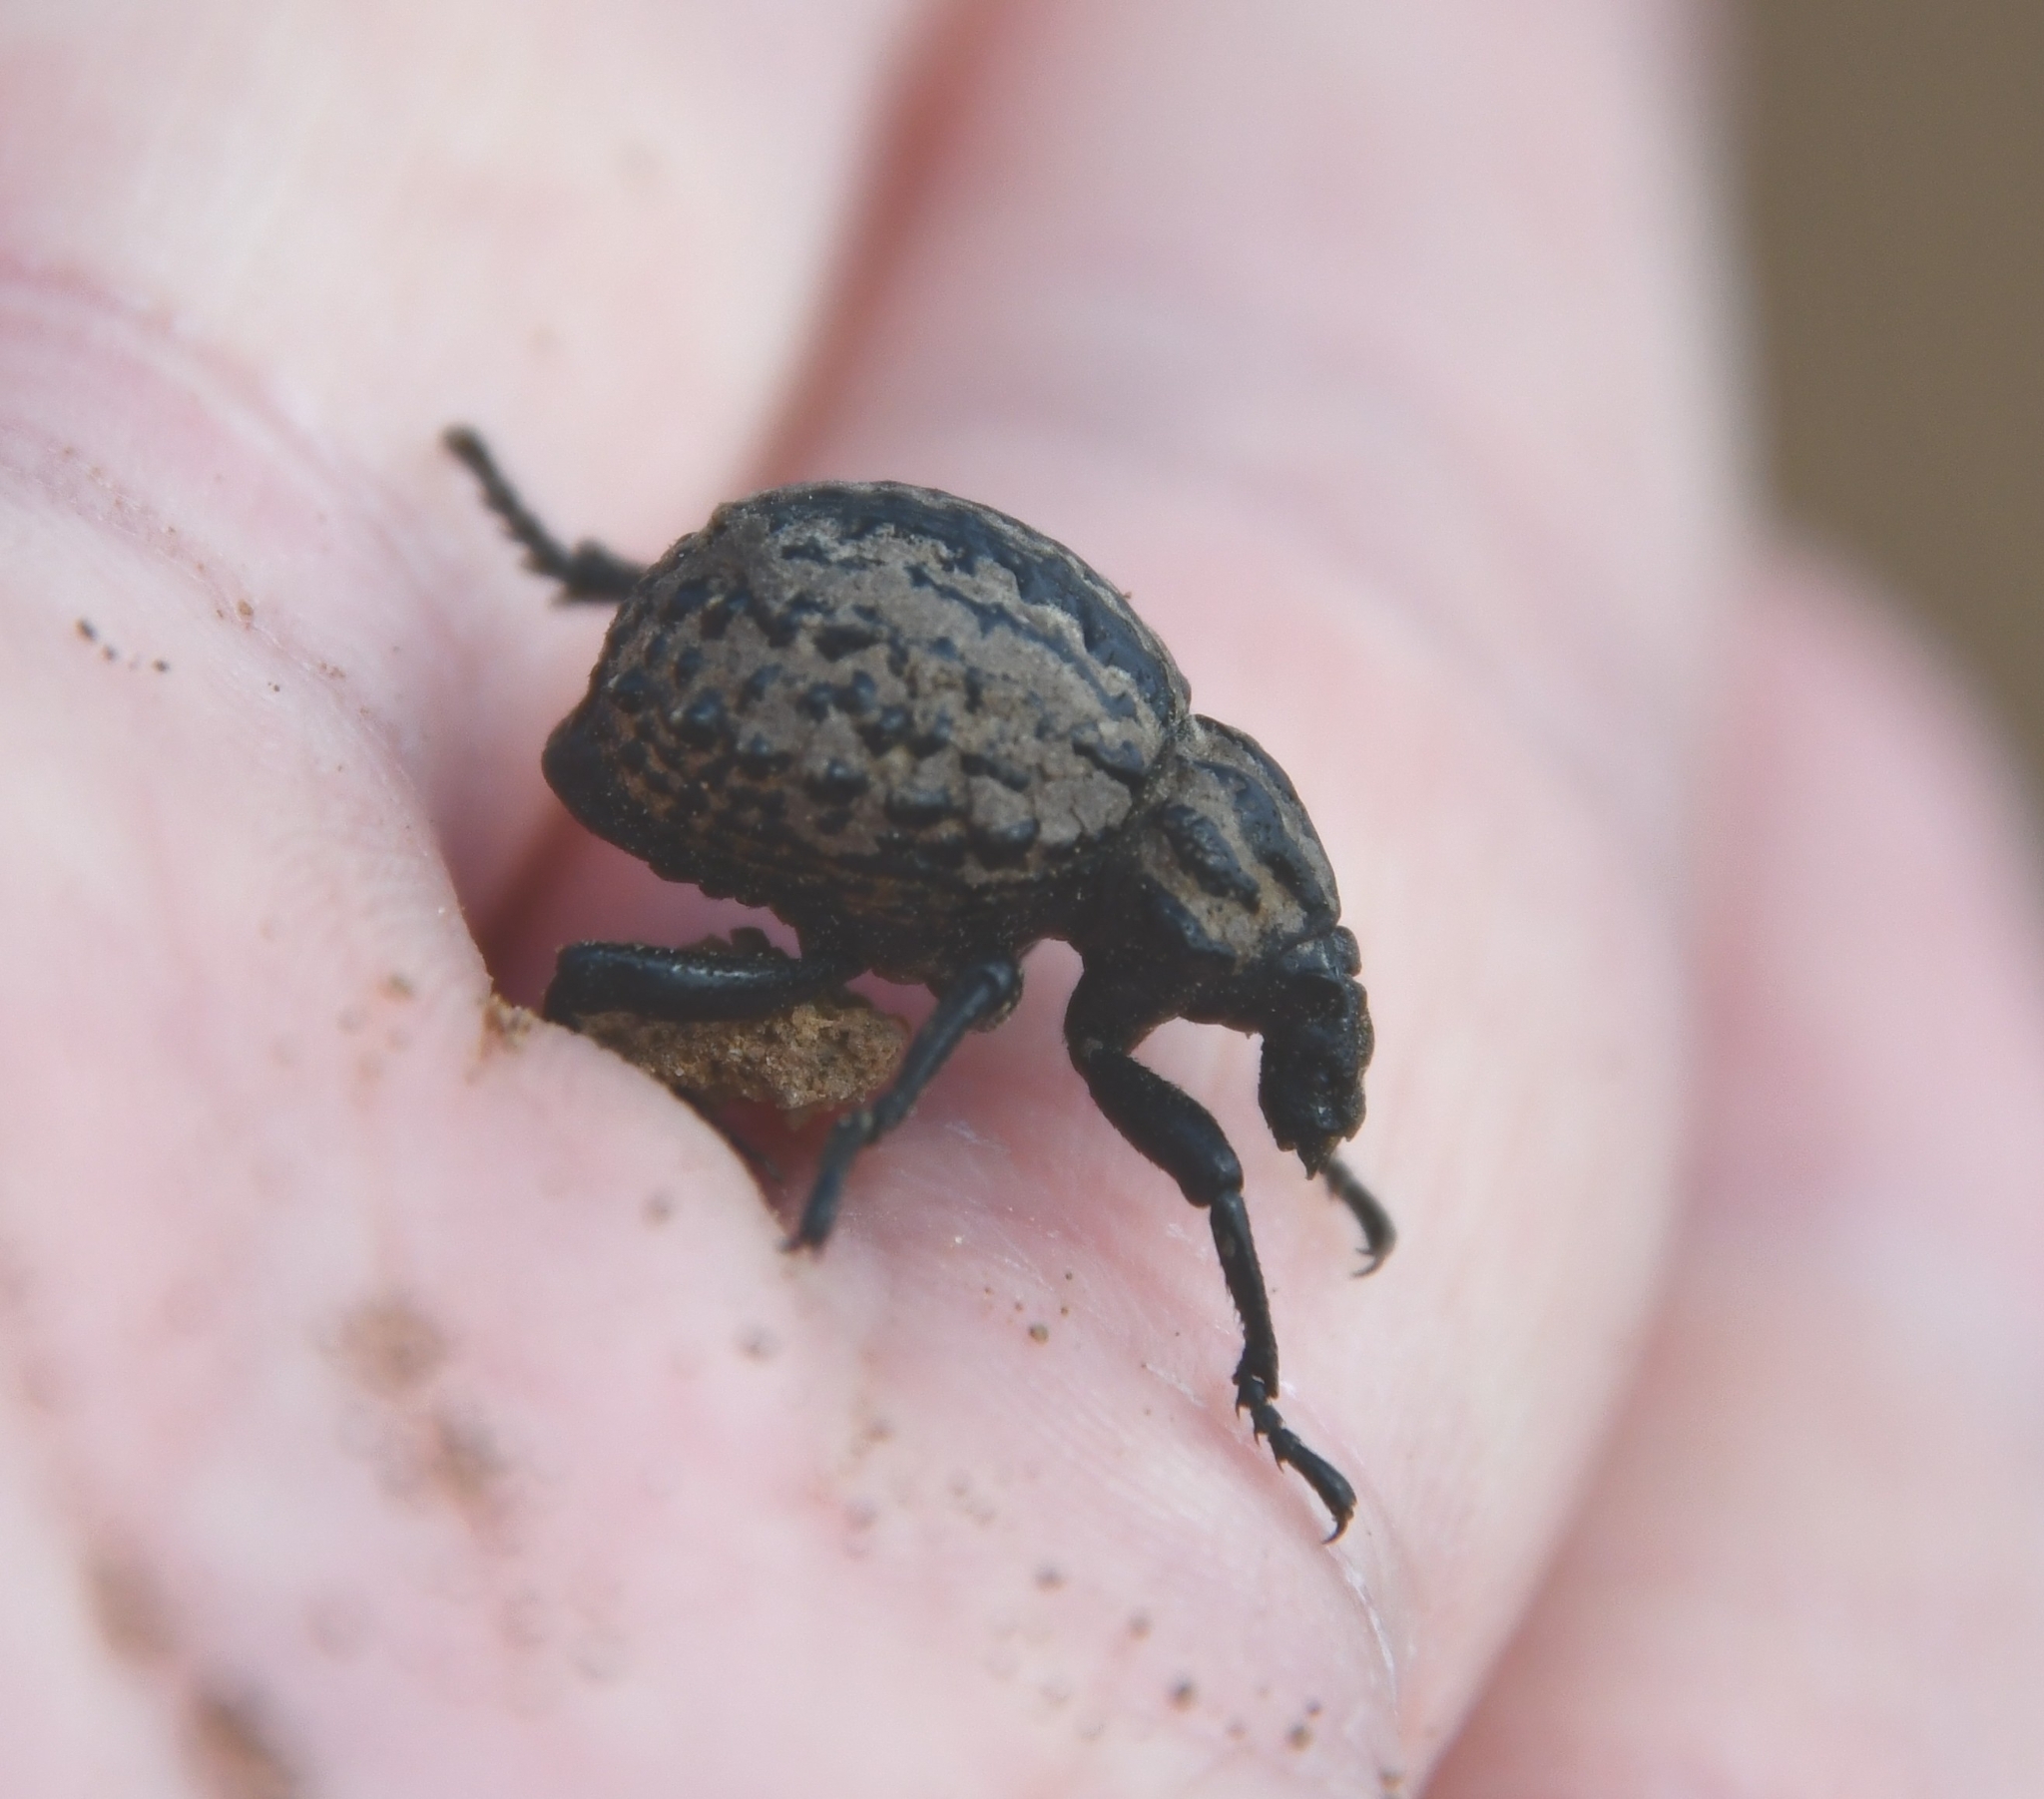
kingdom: Animalia
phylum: Arthropoda
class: Insecta
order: Coleoptera
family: Brachyceridae
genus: Brachycerus
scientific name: Brachycerus sinuatus
